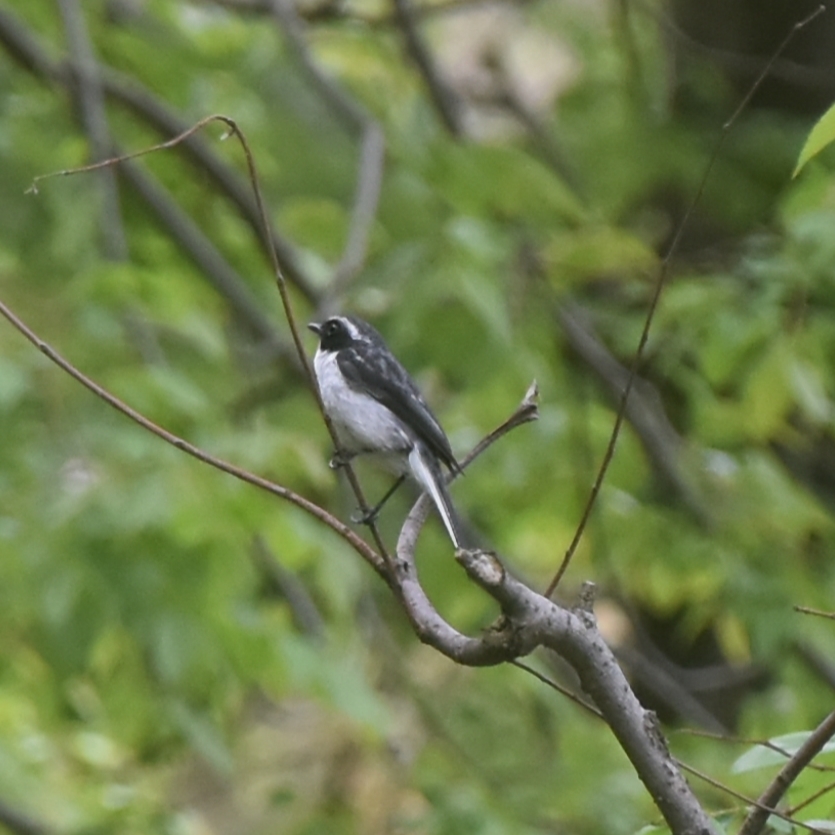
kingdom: Animalia
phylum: Chordata
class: Aves
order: Passeriformes
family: Muscicapidae
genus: Saxicola
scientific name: Saxicola ferreus
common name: Grey bush chat
